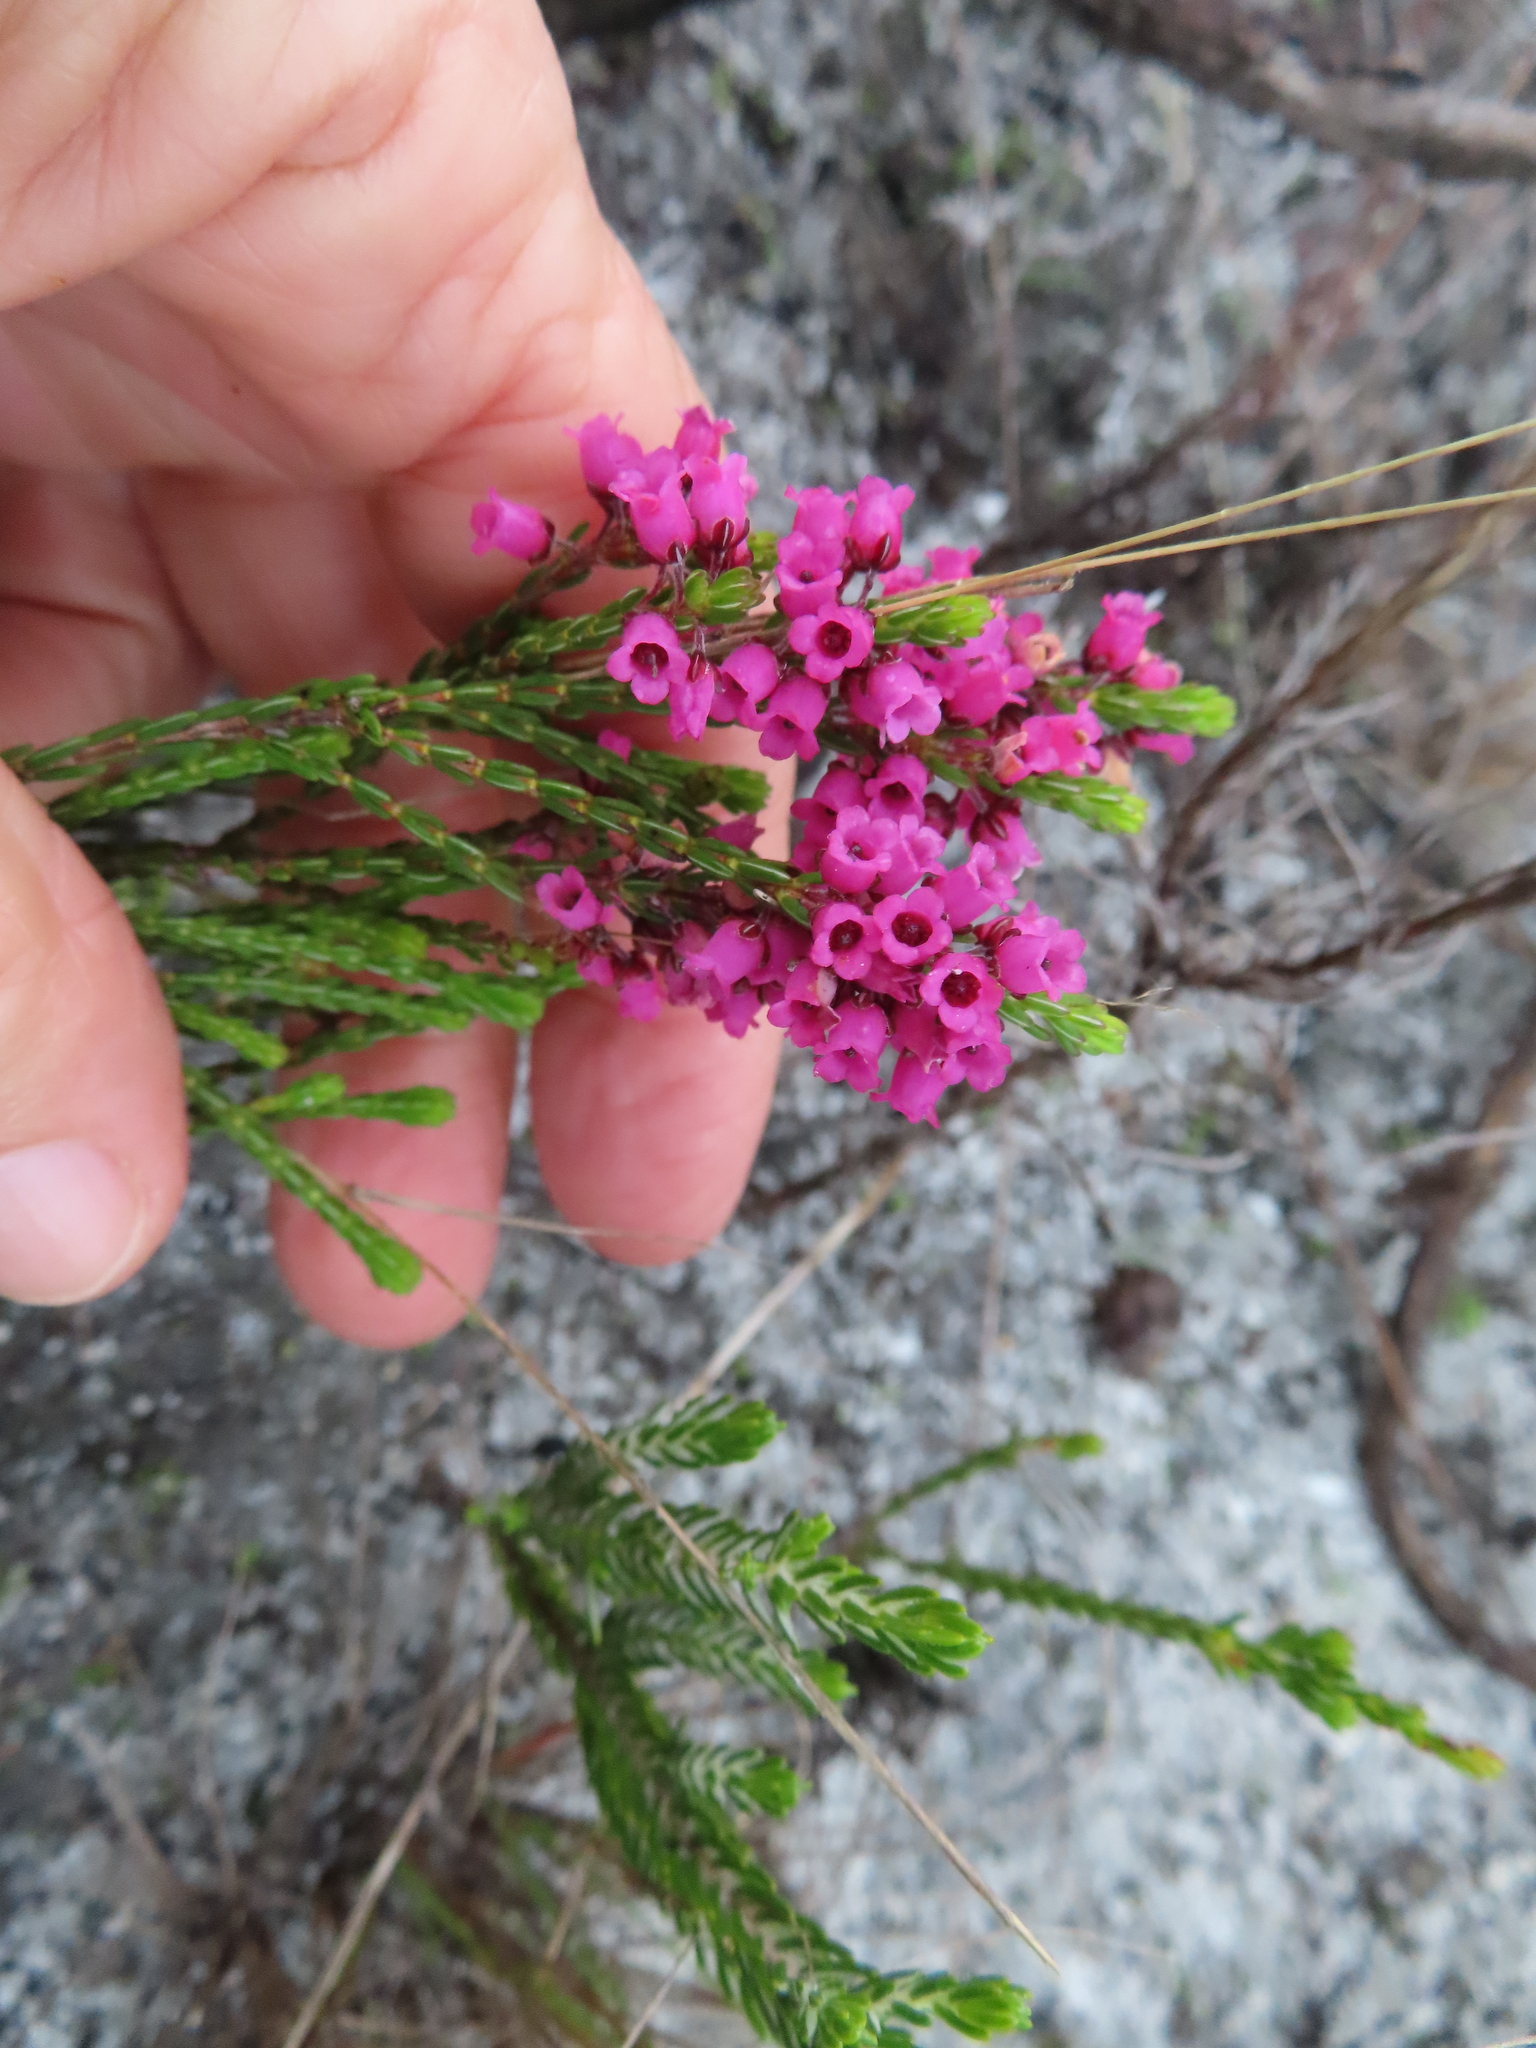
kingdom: Plantae
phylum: Tracheophyta
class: Magnoliopsida
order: Ericales
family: Ericaceae
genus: Erica
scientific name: Erica pulchella
